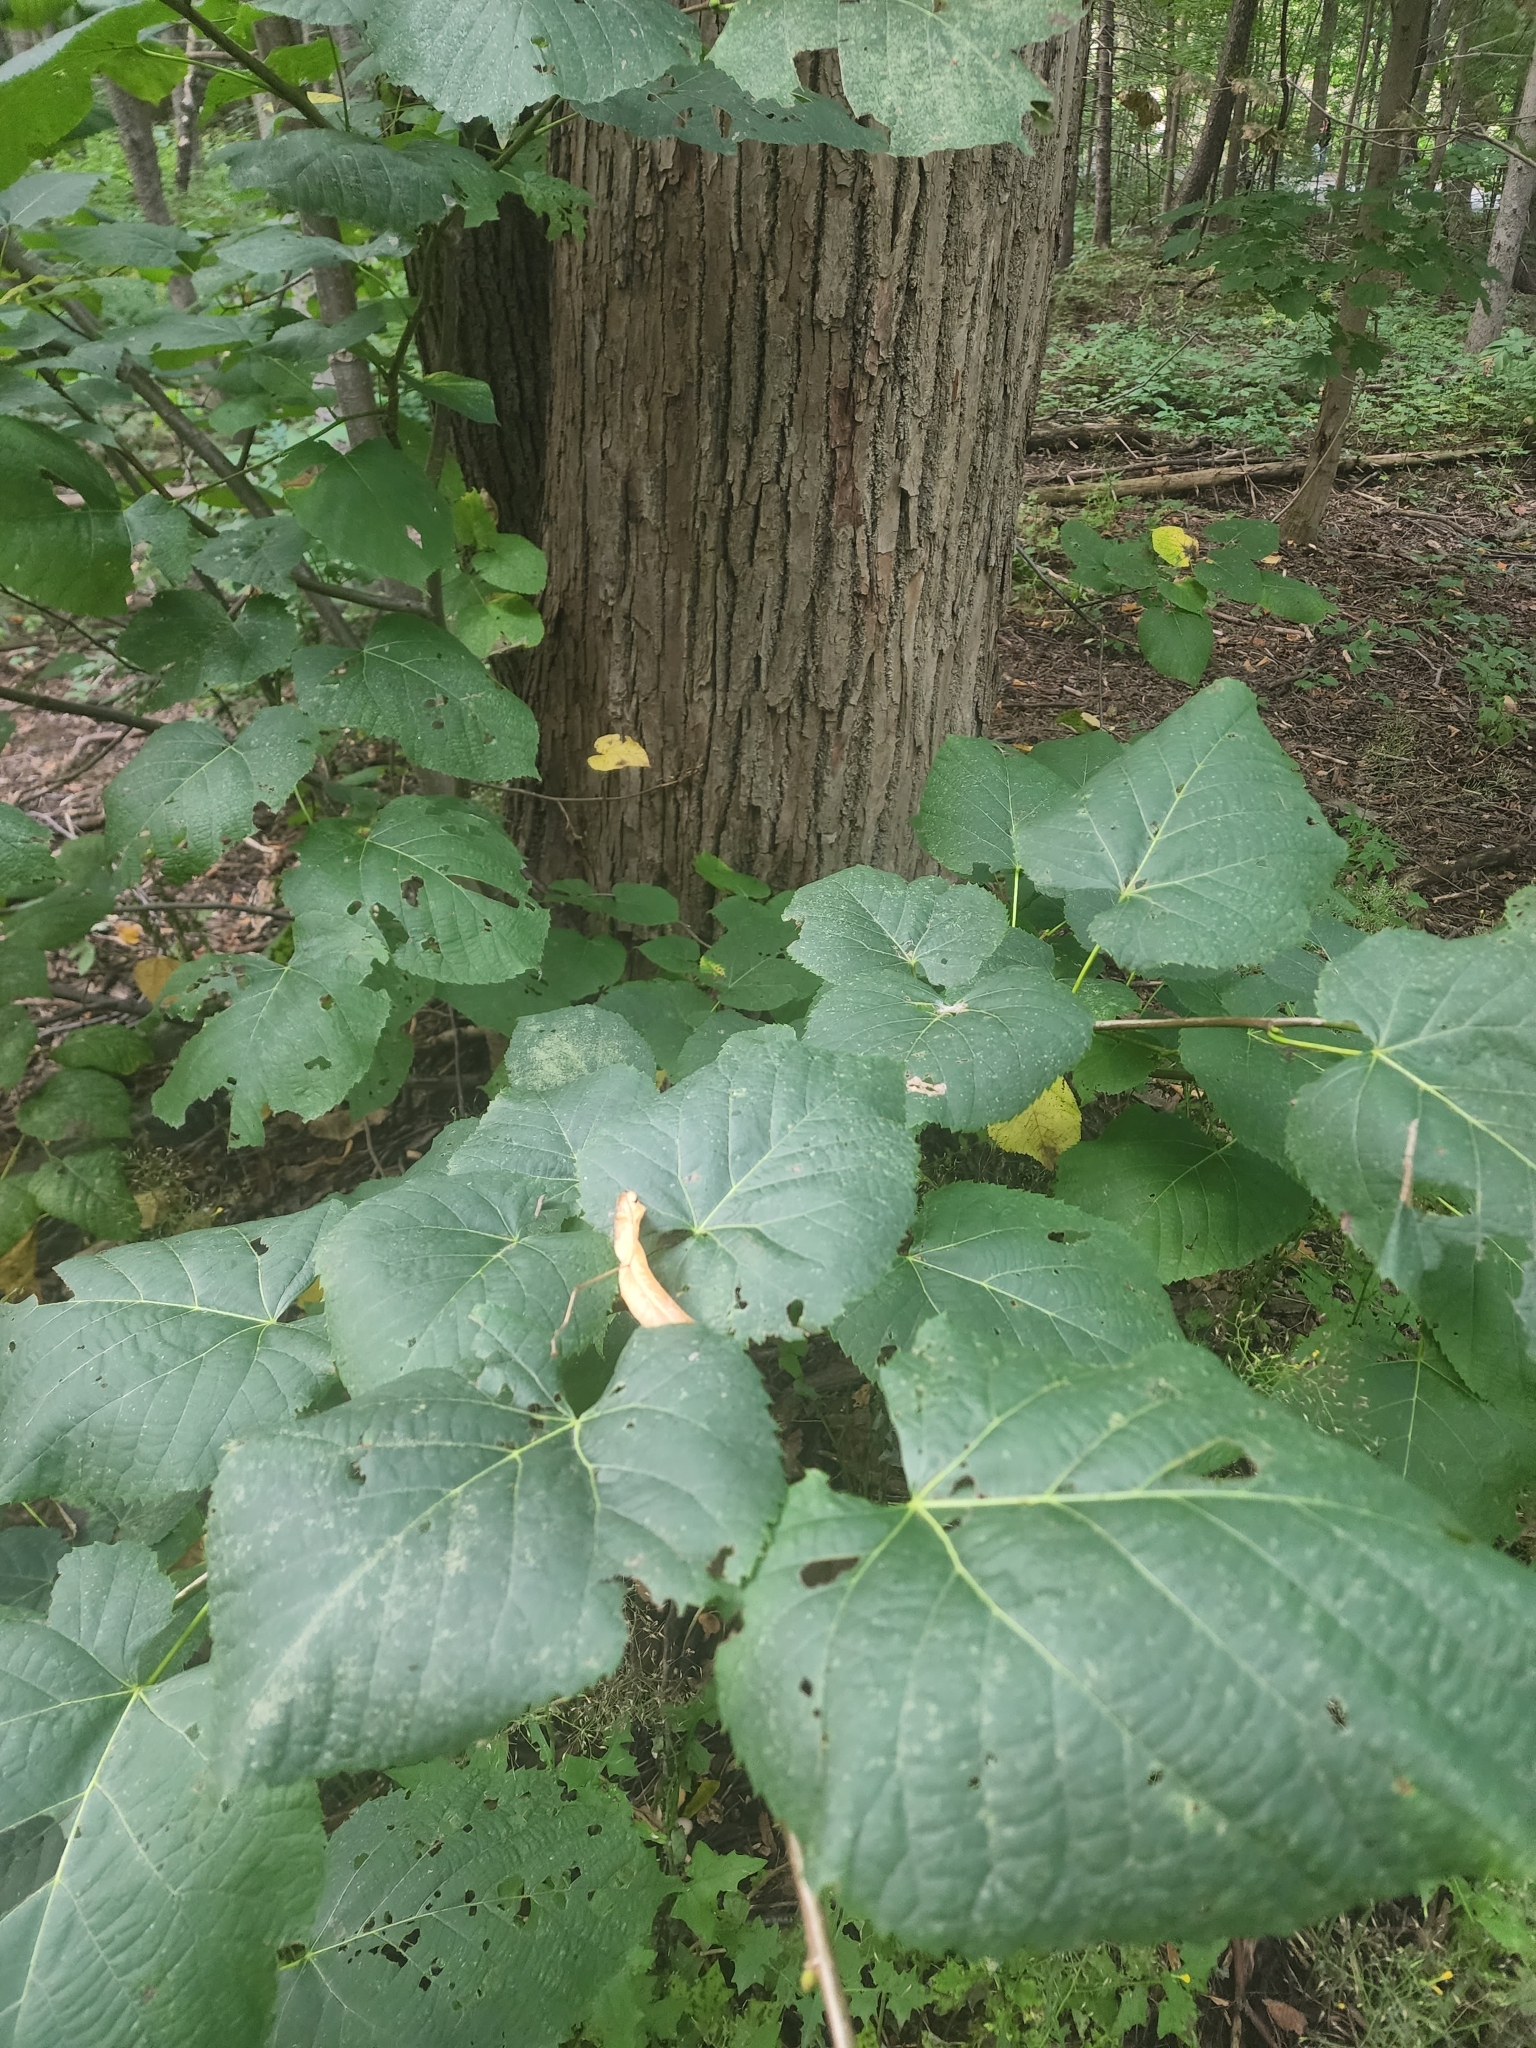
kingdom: Plantae
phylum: Tracheophyta
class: Magnoliopsida
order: Malvales
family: Malvaceae
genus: Tilia
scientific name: Tilia americana
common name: Basswood
